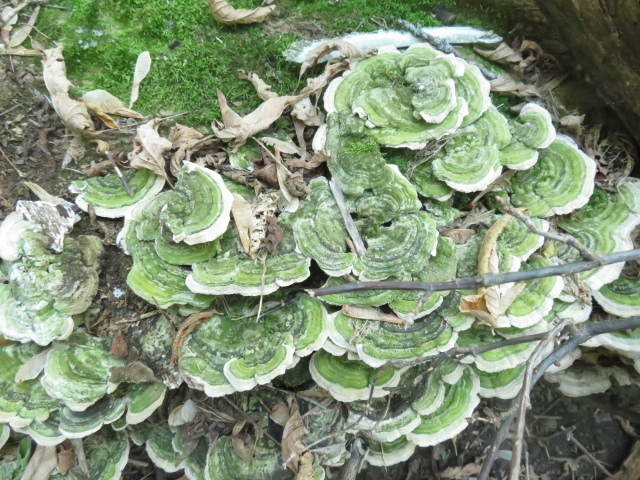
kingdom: Fungi
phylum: Basidiomycota
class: Agaricomycetes
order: Polyporales
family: Cerrenaceae
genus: Cerrena
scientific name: Cerrena unicolor
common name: Mossy maze polypore
